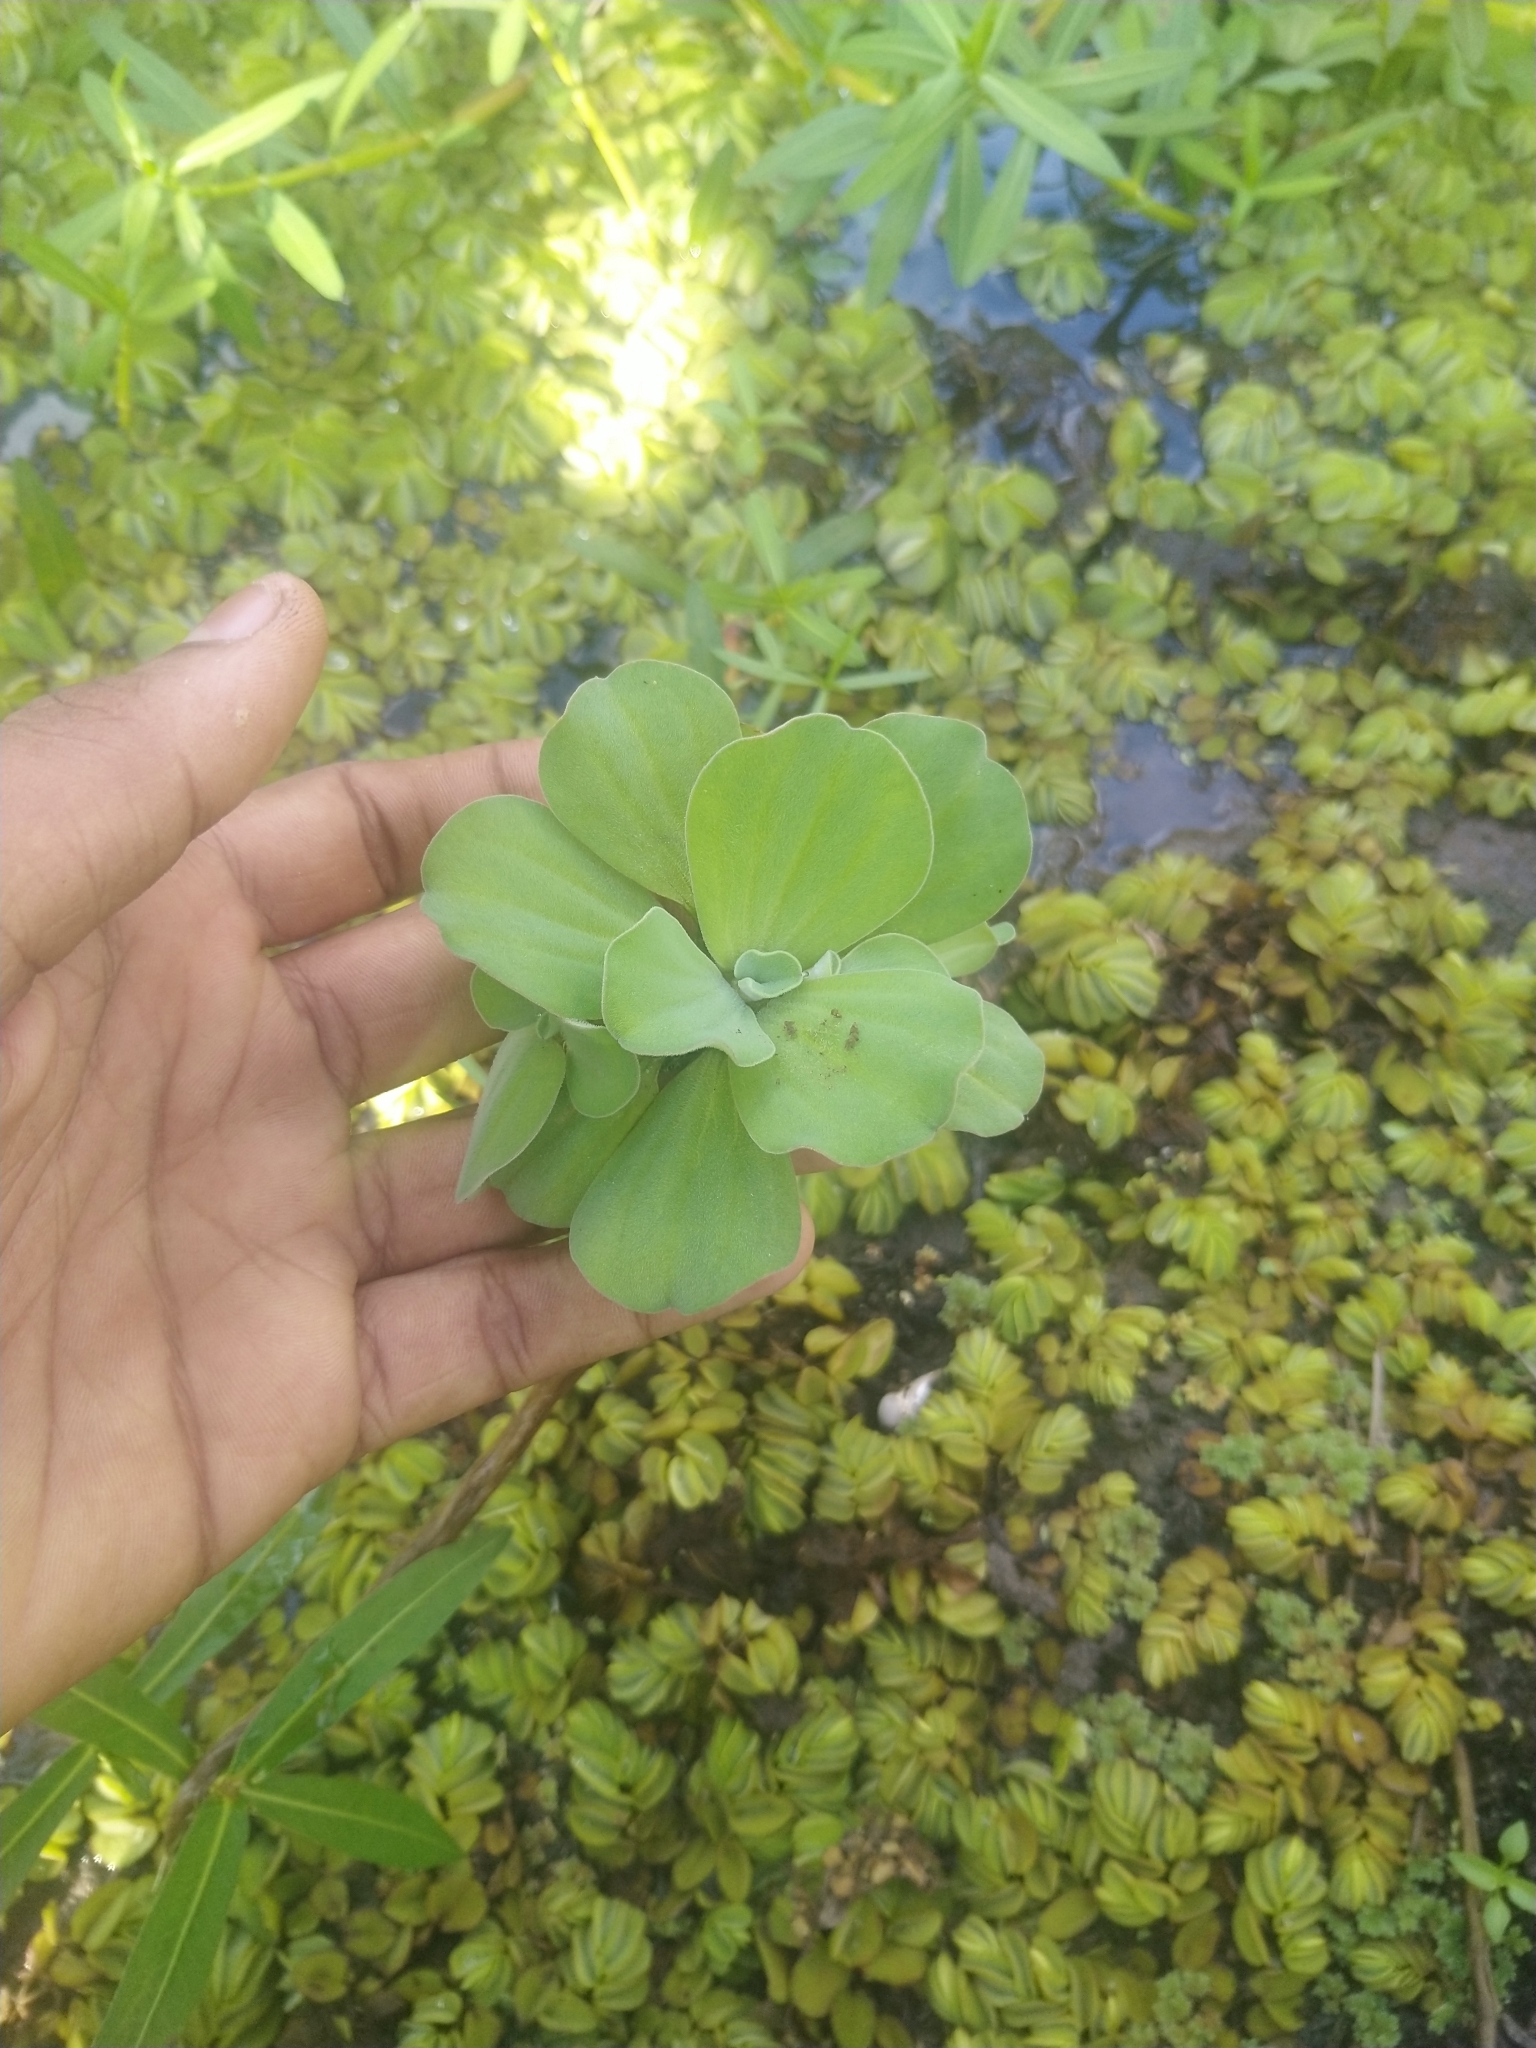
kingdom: Plantae
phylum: Tracheophyta
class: Liliopsida
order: Alismatales
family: Araceae
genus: Pistia
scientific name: Pistia stratiotes
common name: Water lettuce
